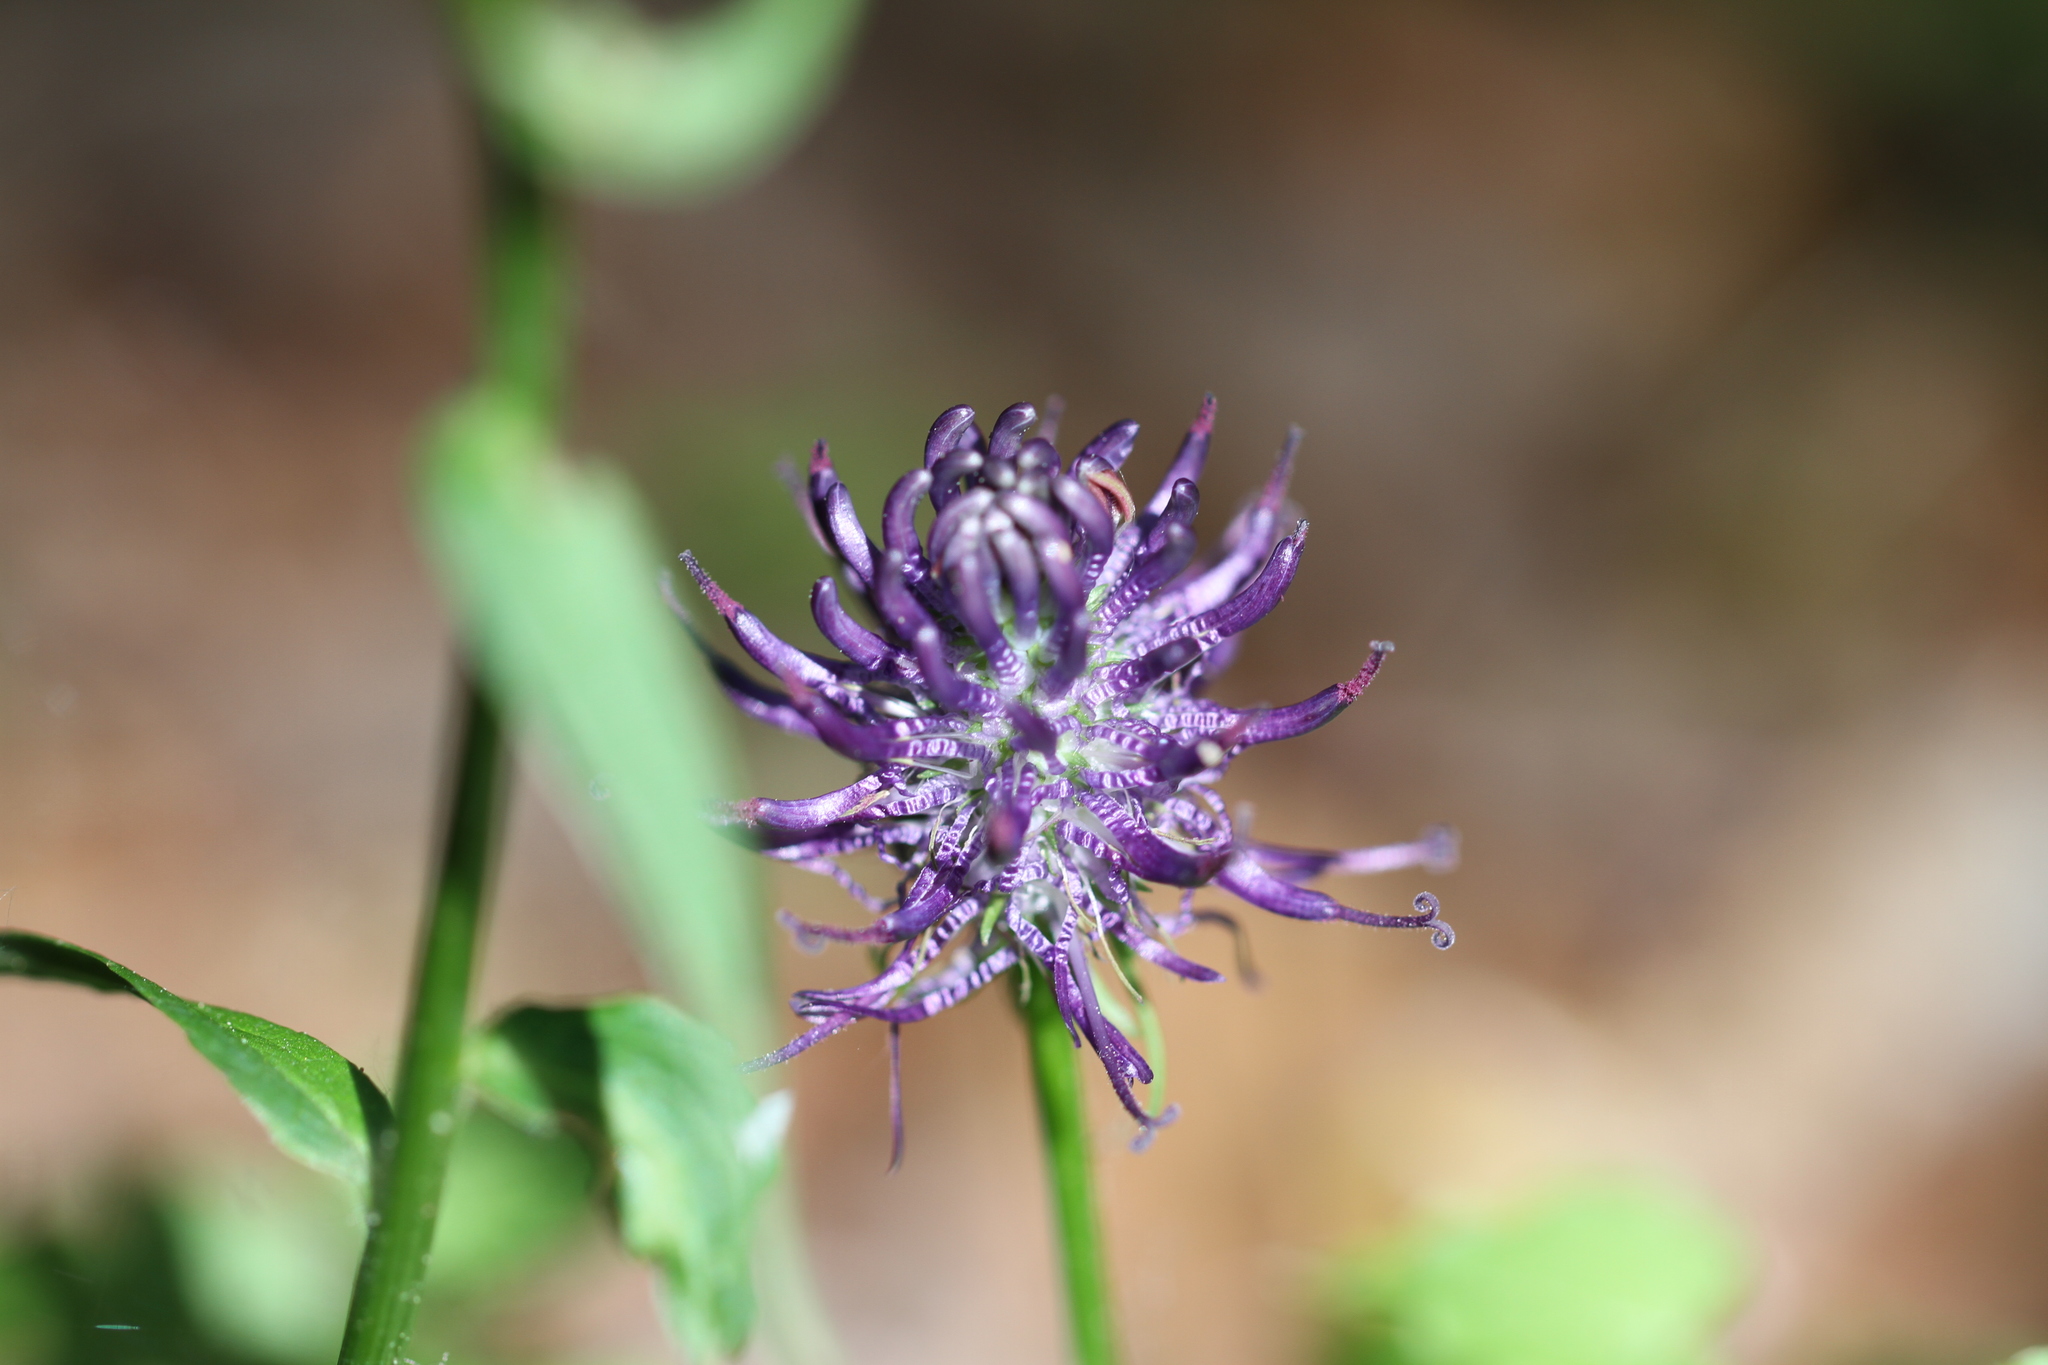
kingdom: Plantae
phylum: Tracheophyta
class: Magnoliopsida
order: Asterales
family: Campanulaceae
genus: Phyteuma
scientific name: Phyteuma nigrum
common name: Black rampion
